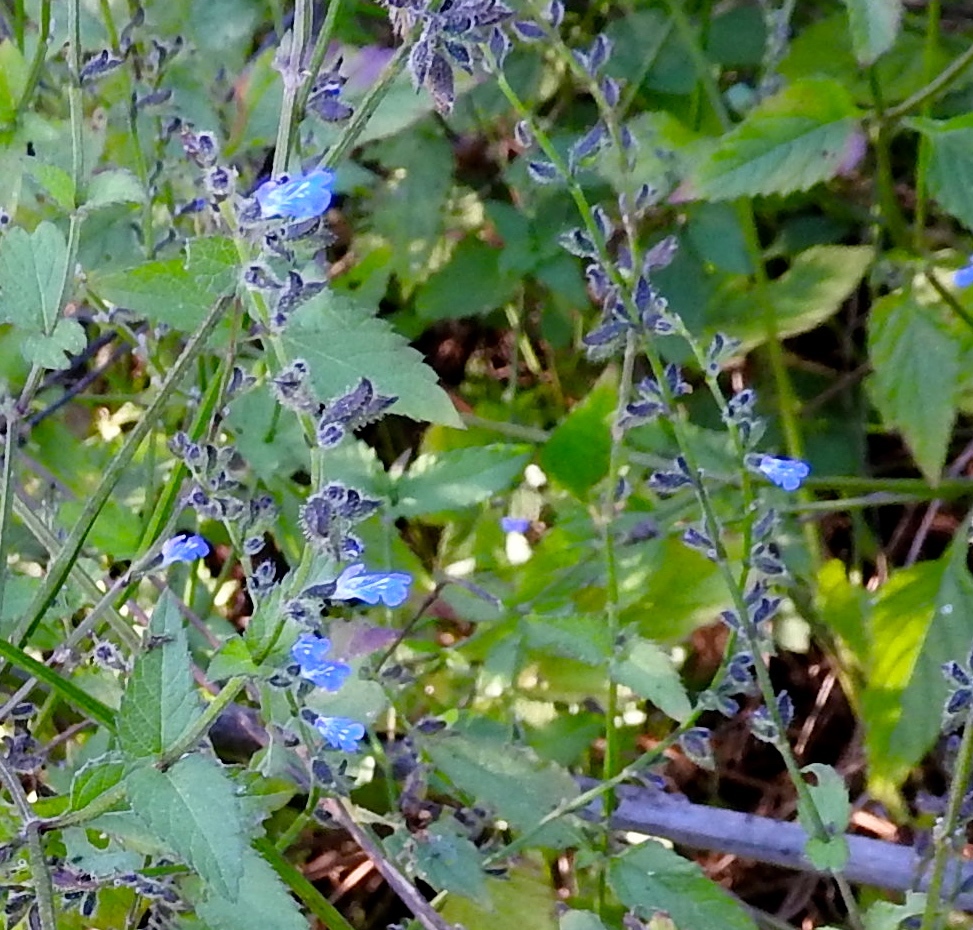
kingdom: Plantae
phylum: Tracheophyta
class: Magnoliopsida
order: Lamiales
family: Lamiaceae
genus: Salvia
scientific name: Salvia misella
